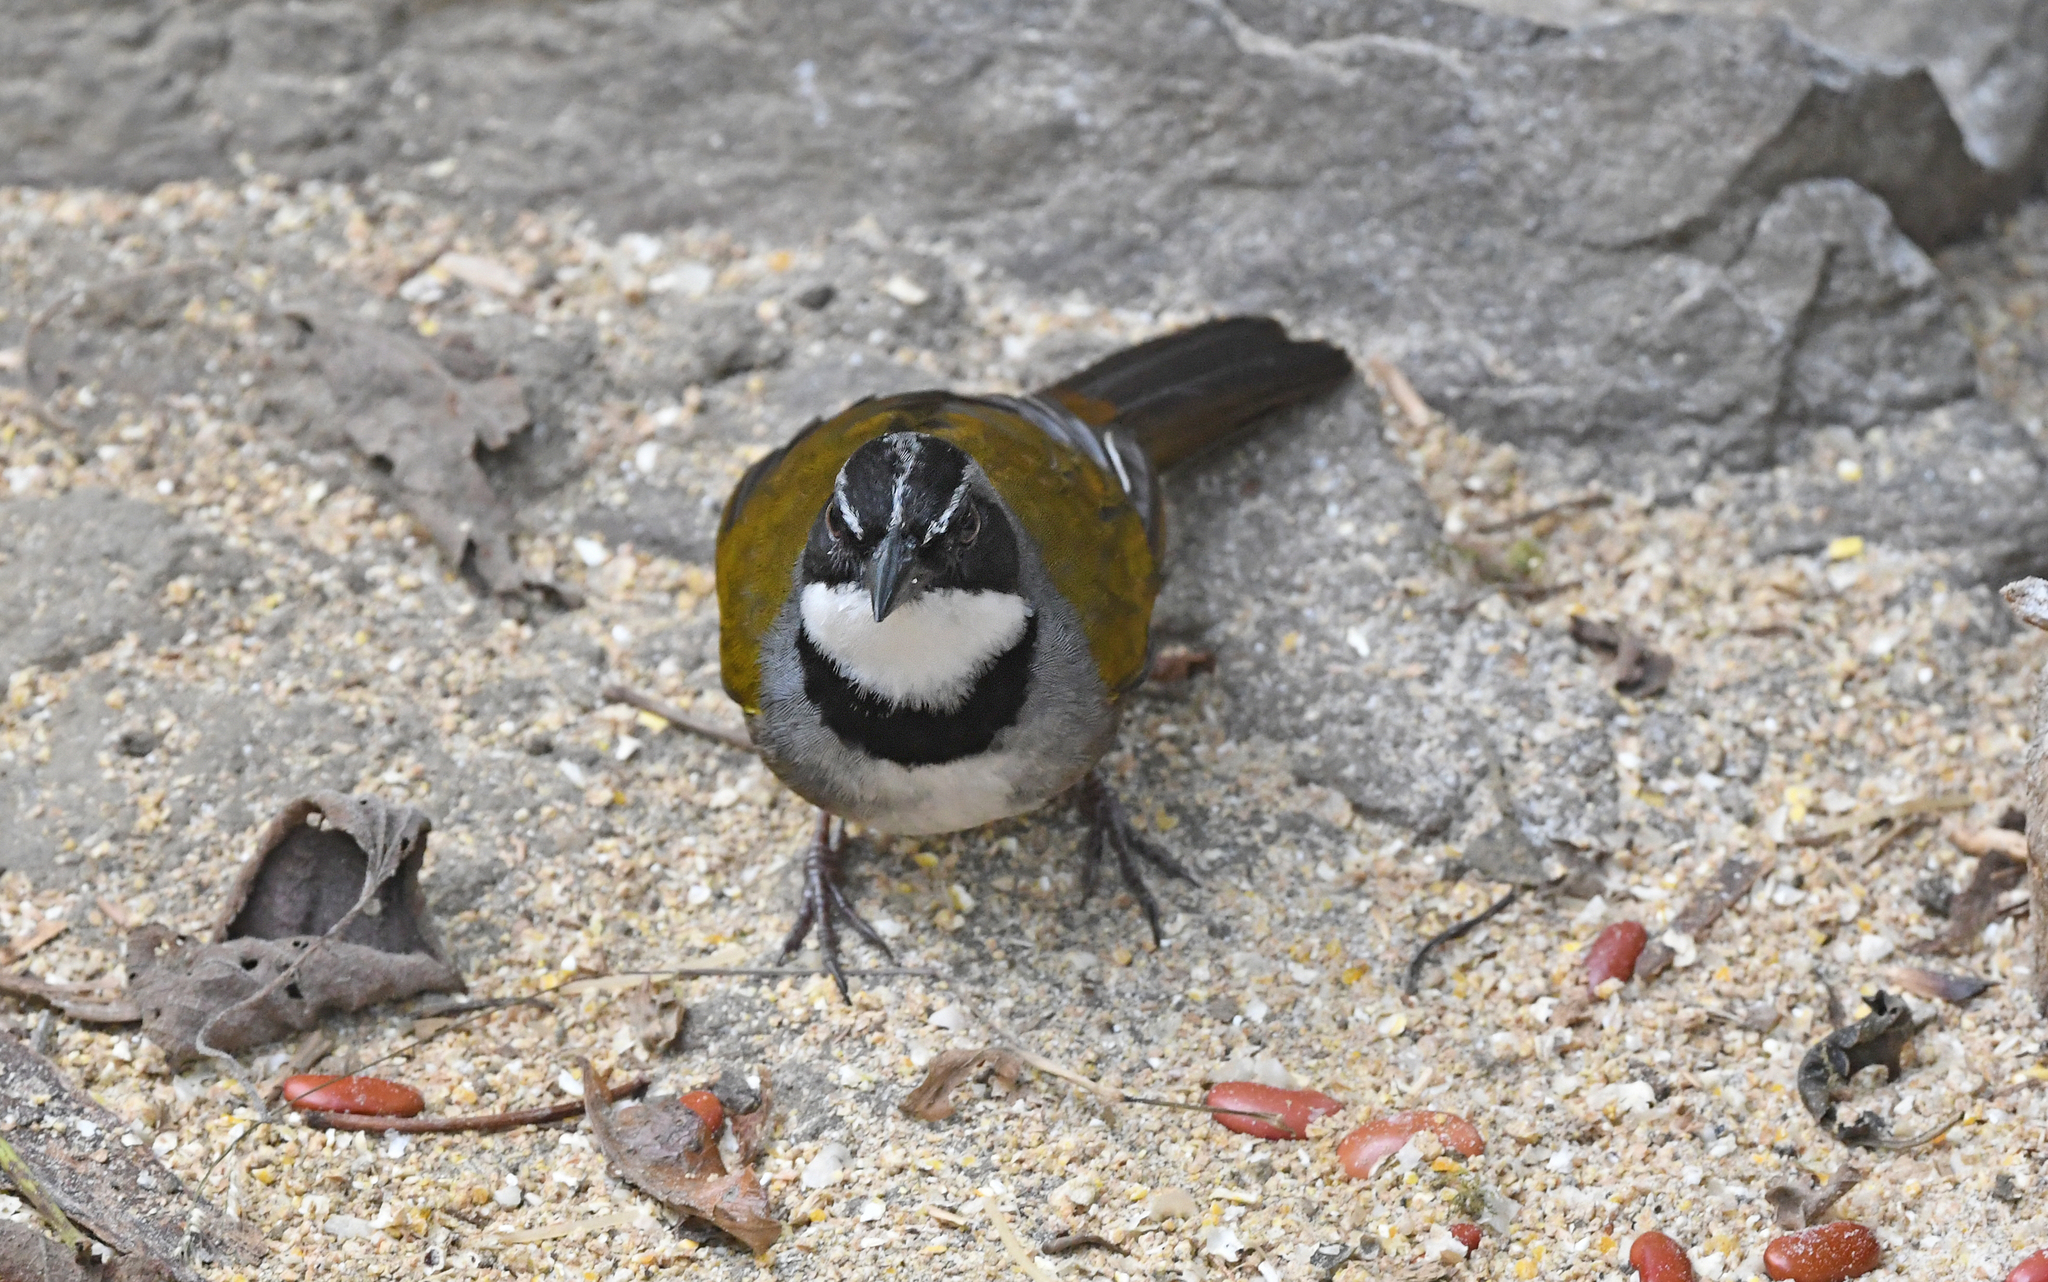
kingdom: Animalia
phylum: Chordata
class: Aves
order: Passeriformes
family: Passerellidae
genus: Arremon
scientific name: Arremon basilicus
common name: Sierra nevada brushfinch
